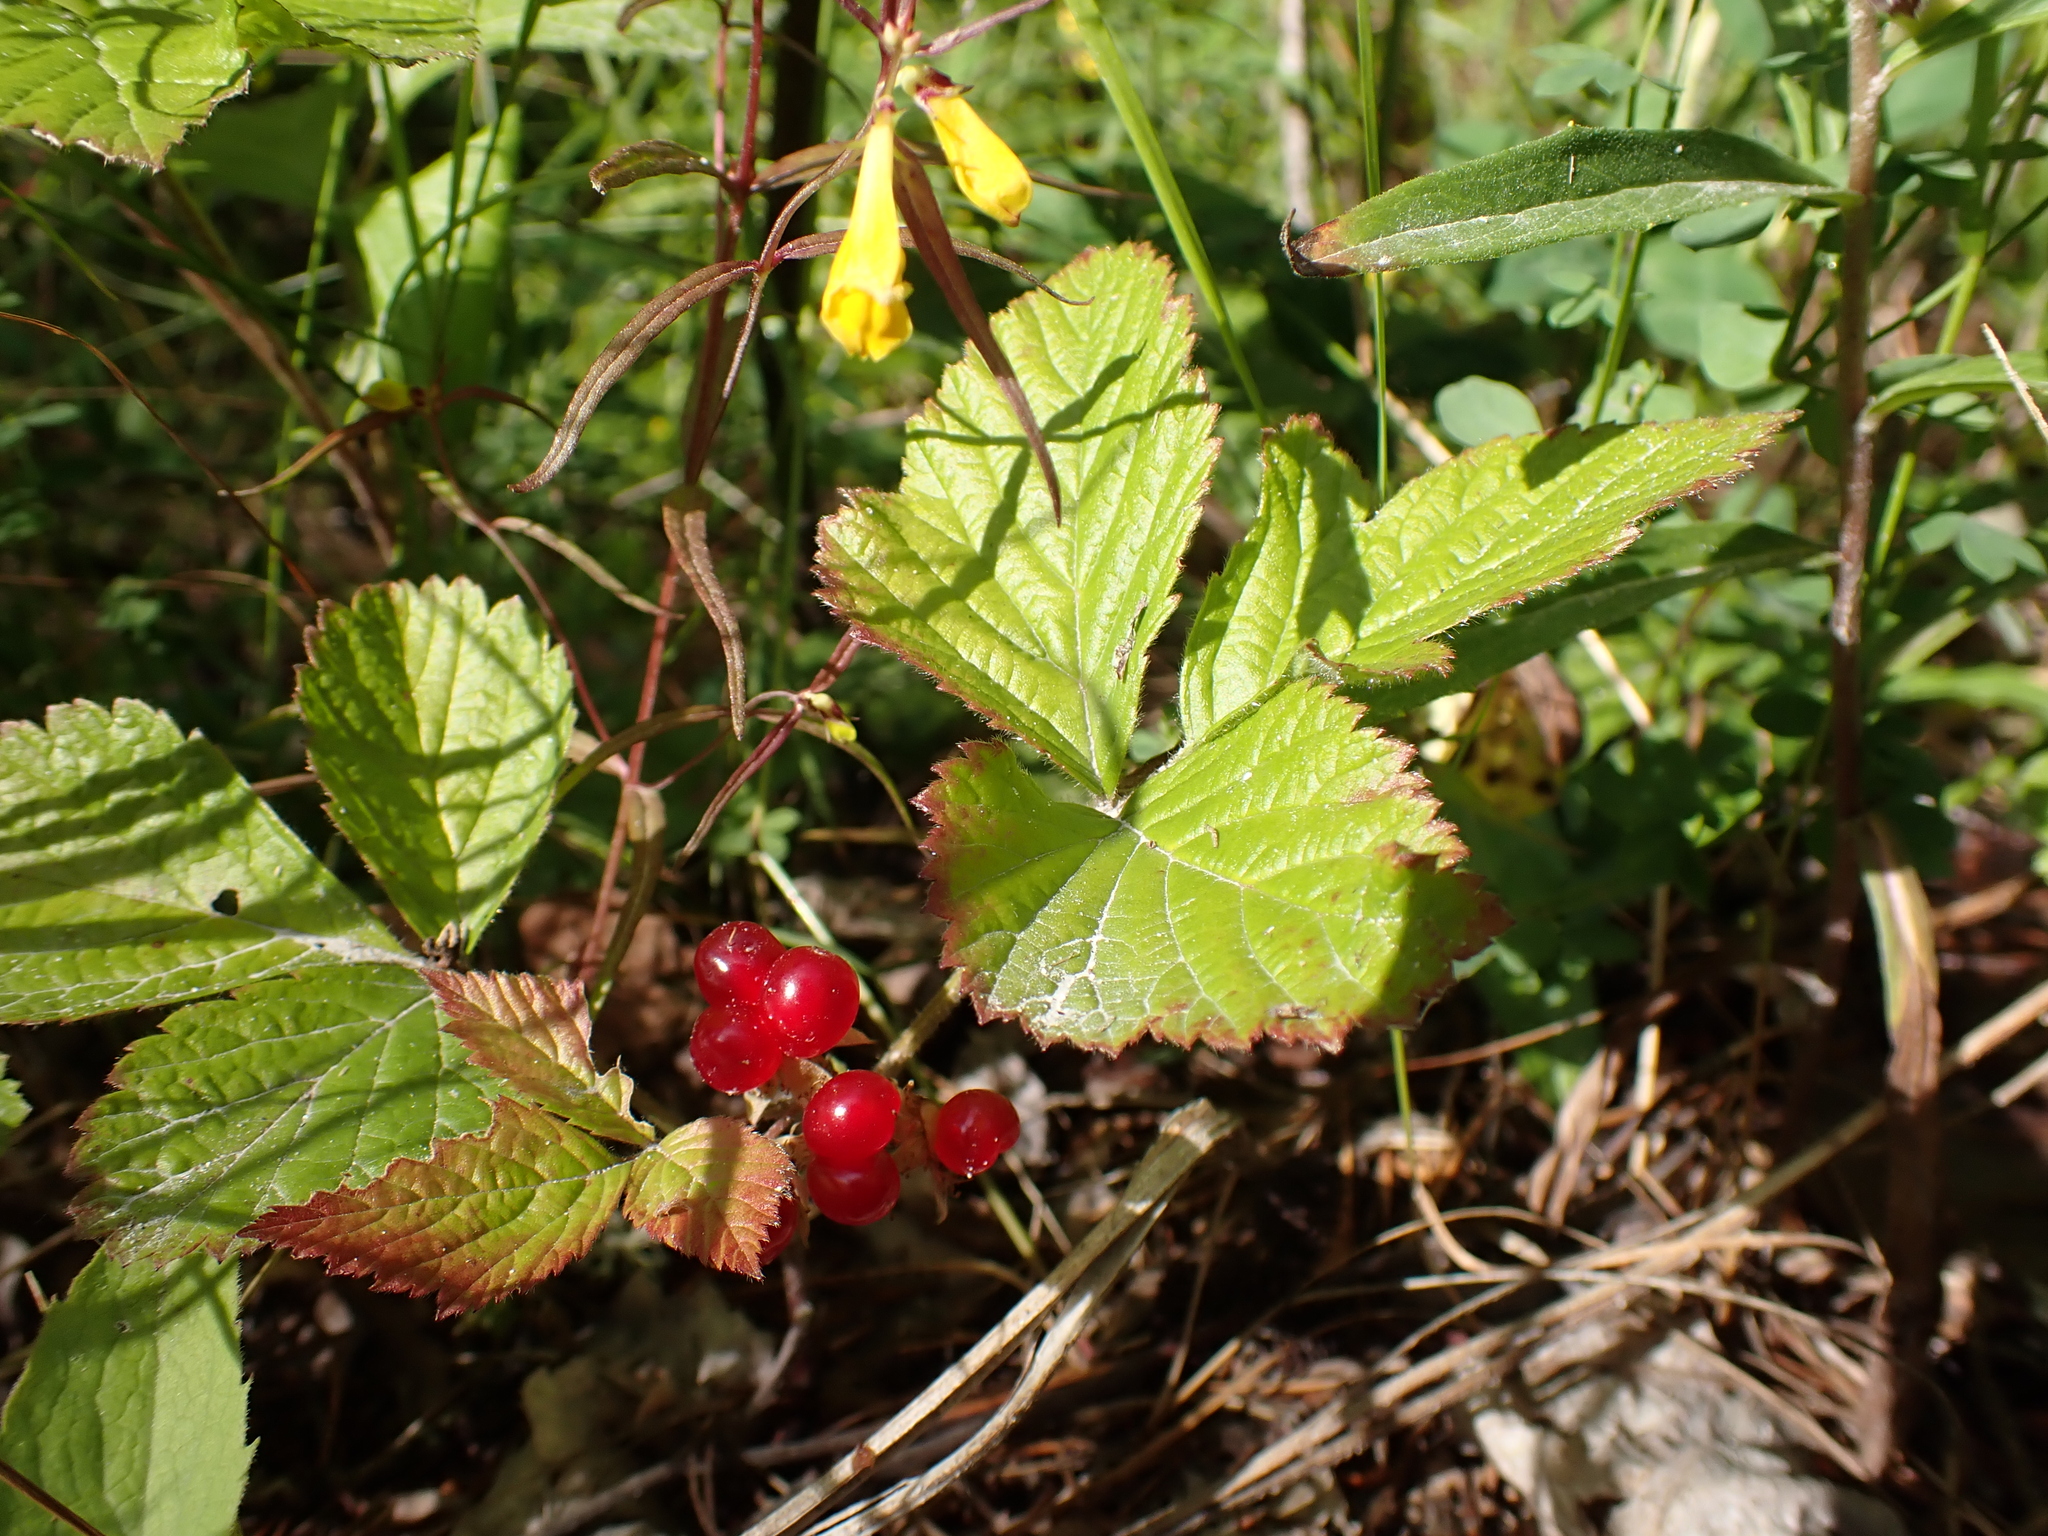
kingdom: Plantae
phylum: Tracheophyta
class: Magnoliopsida
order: Rosales
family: Rosaceae
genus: Rubus
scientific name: Rubus saxatilis
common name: Stone bramble
